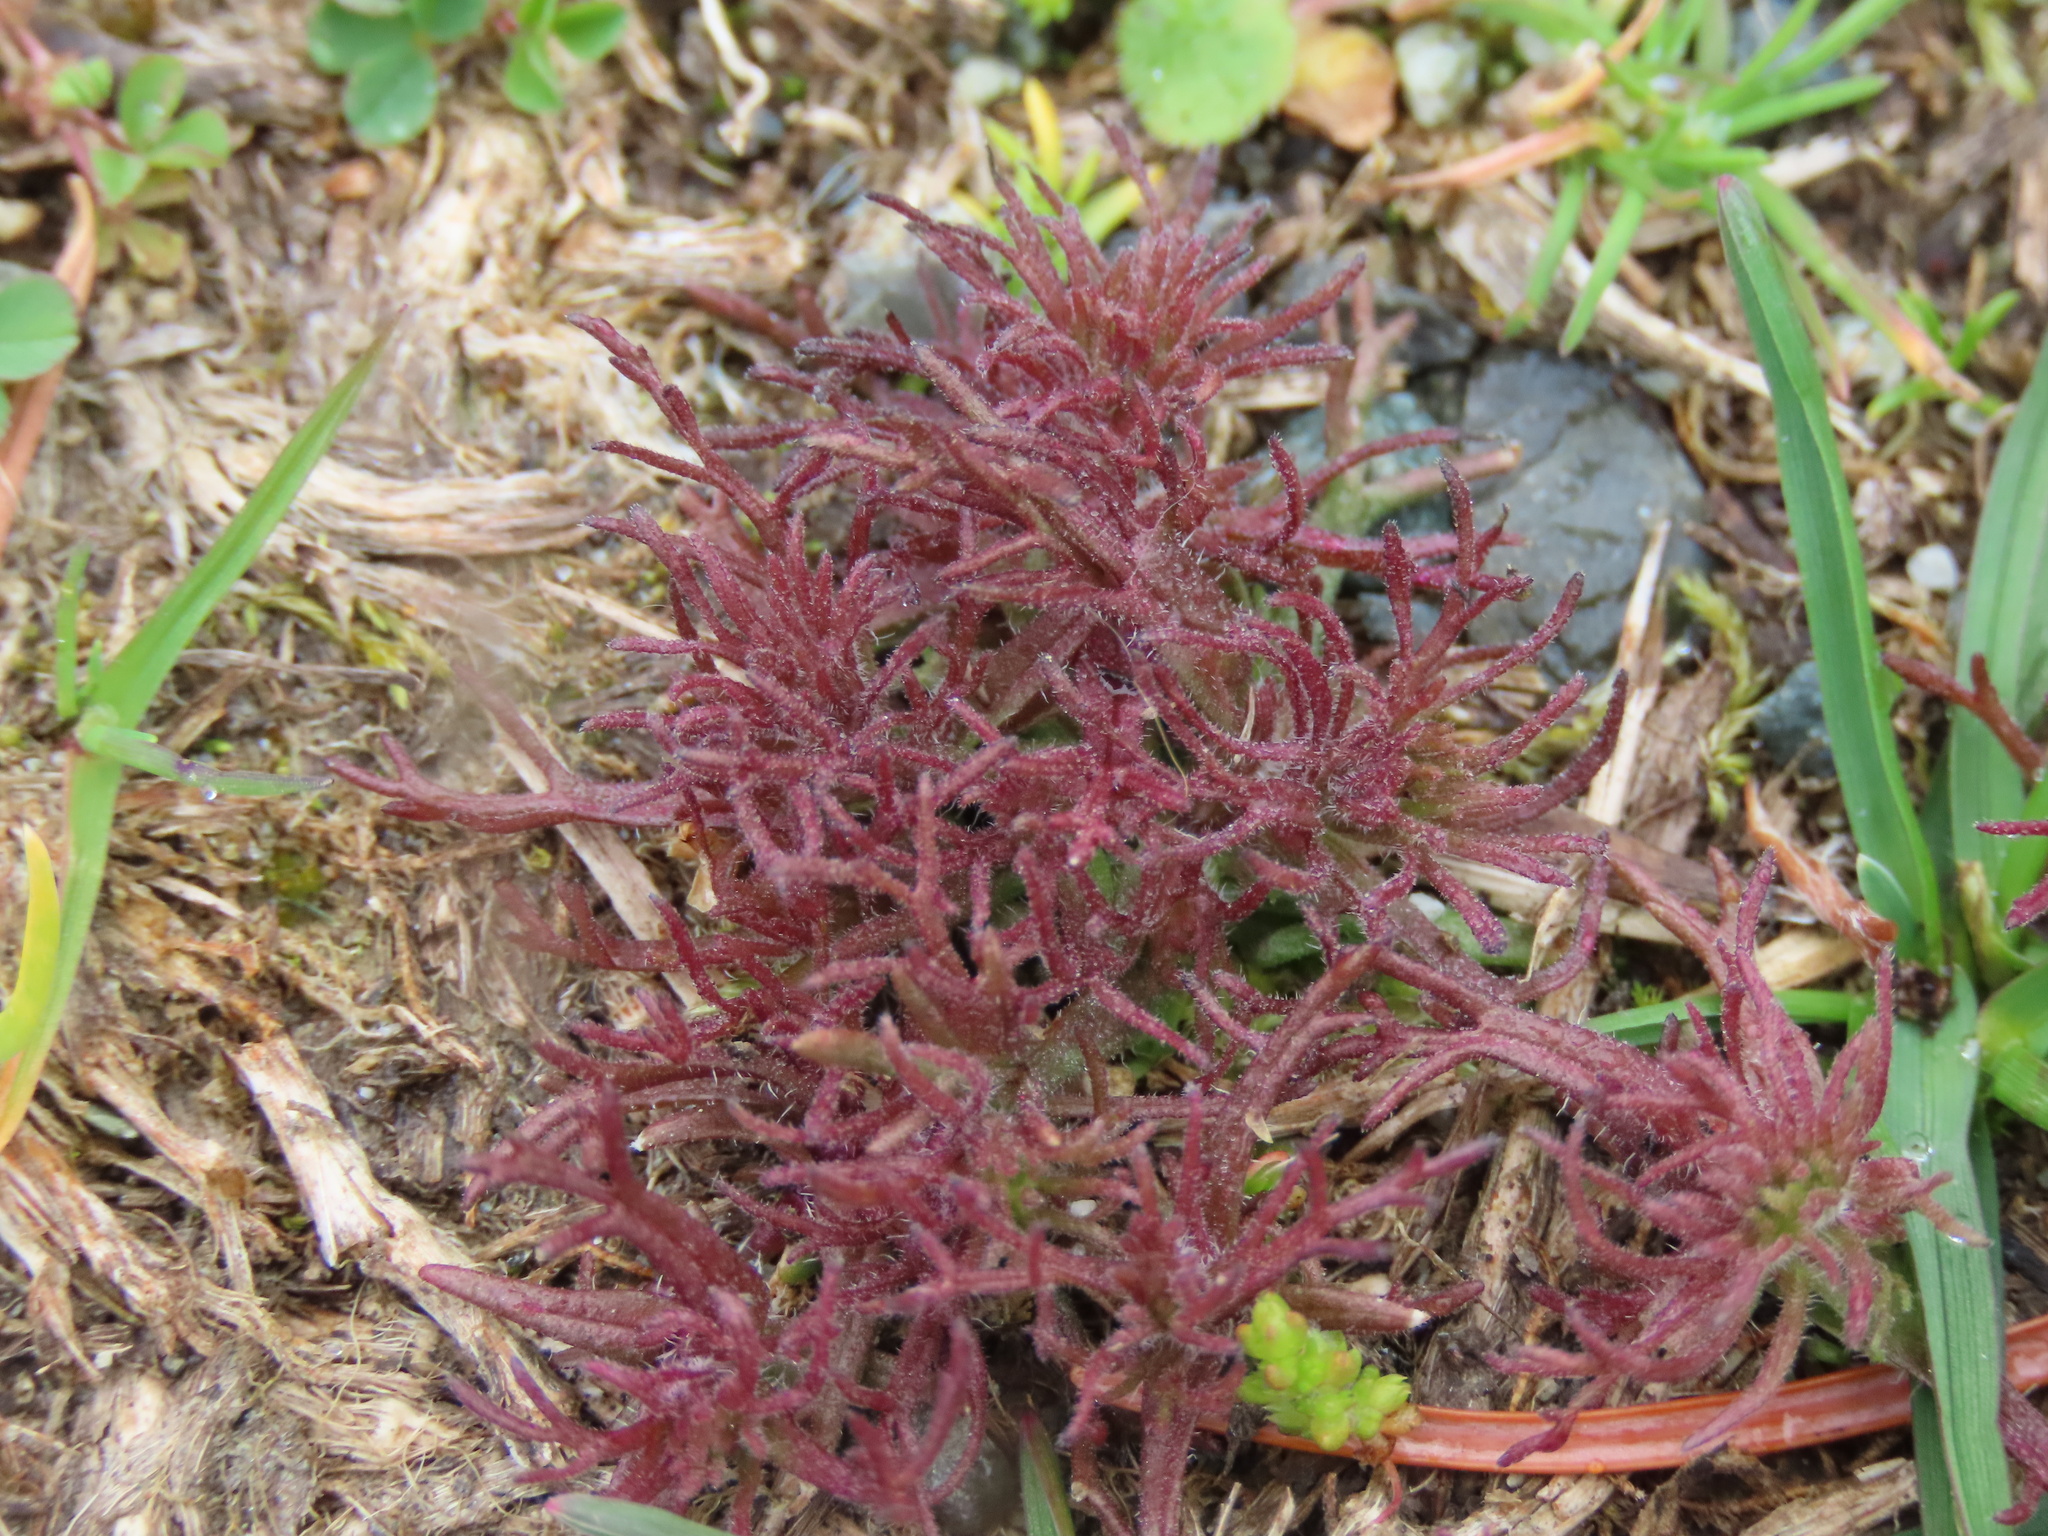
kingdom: Plantae
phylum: Tracheophyta
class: Magnoliopsida
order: Lamiales
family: Orobanchaceae
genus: Triphysaria
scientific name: Triphysaria pusilla
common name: Dwarf false owl-clover
